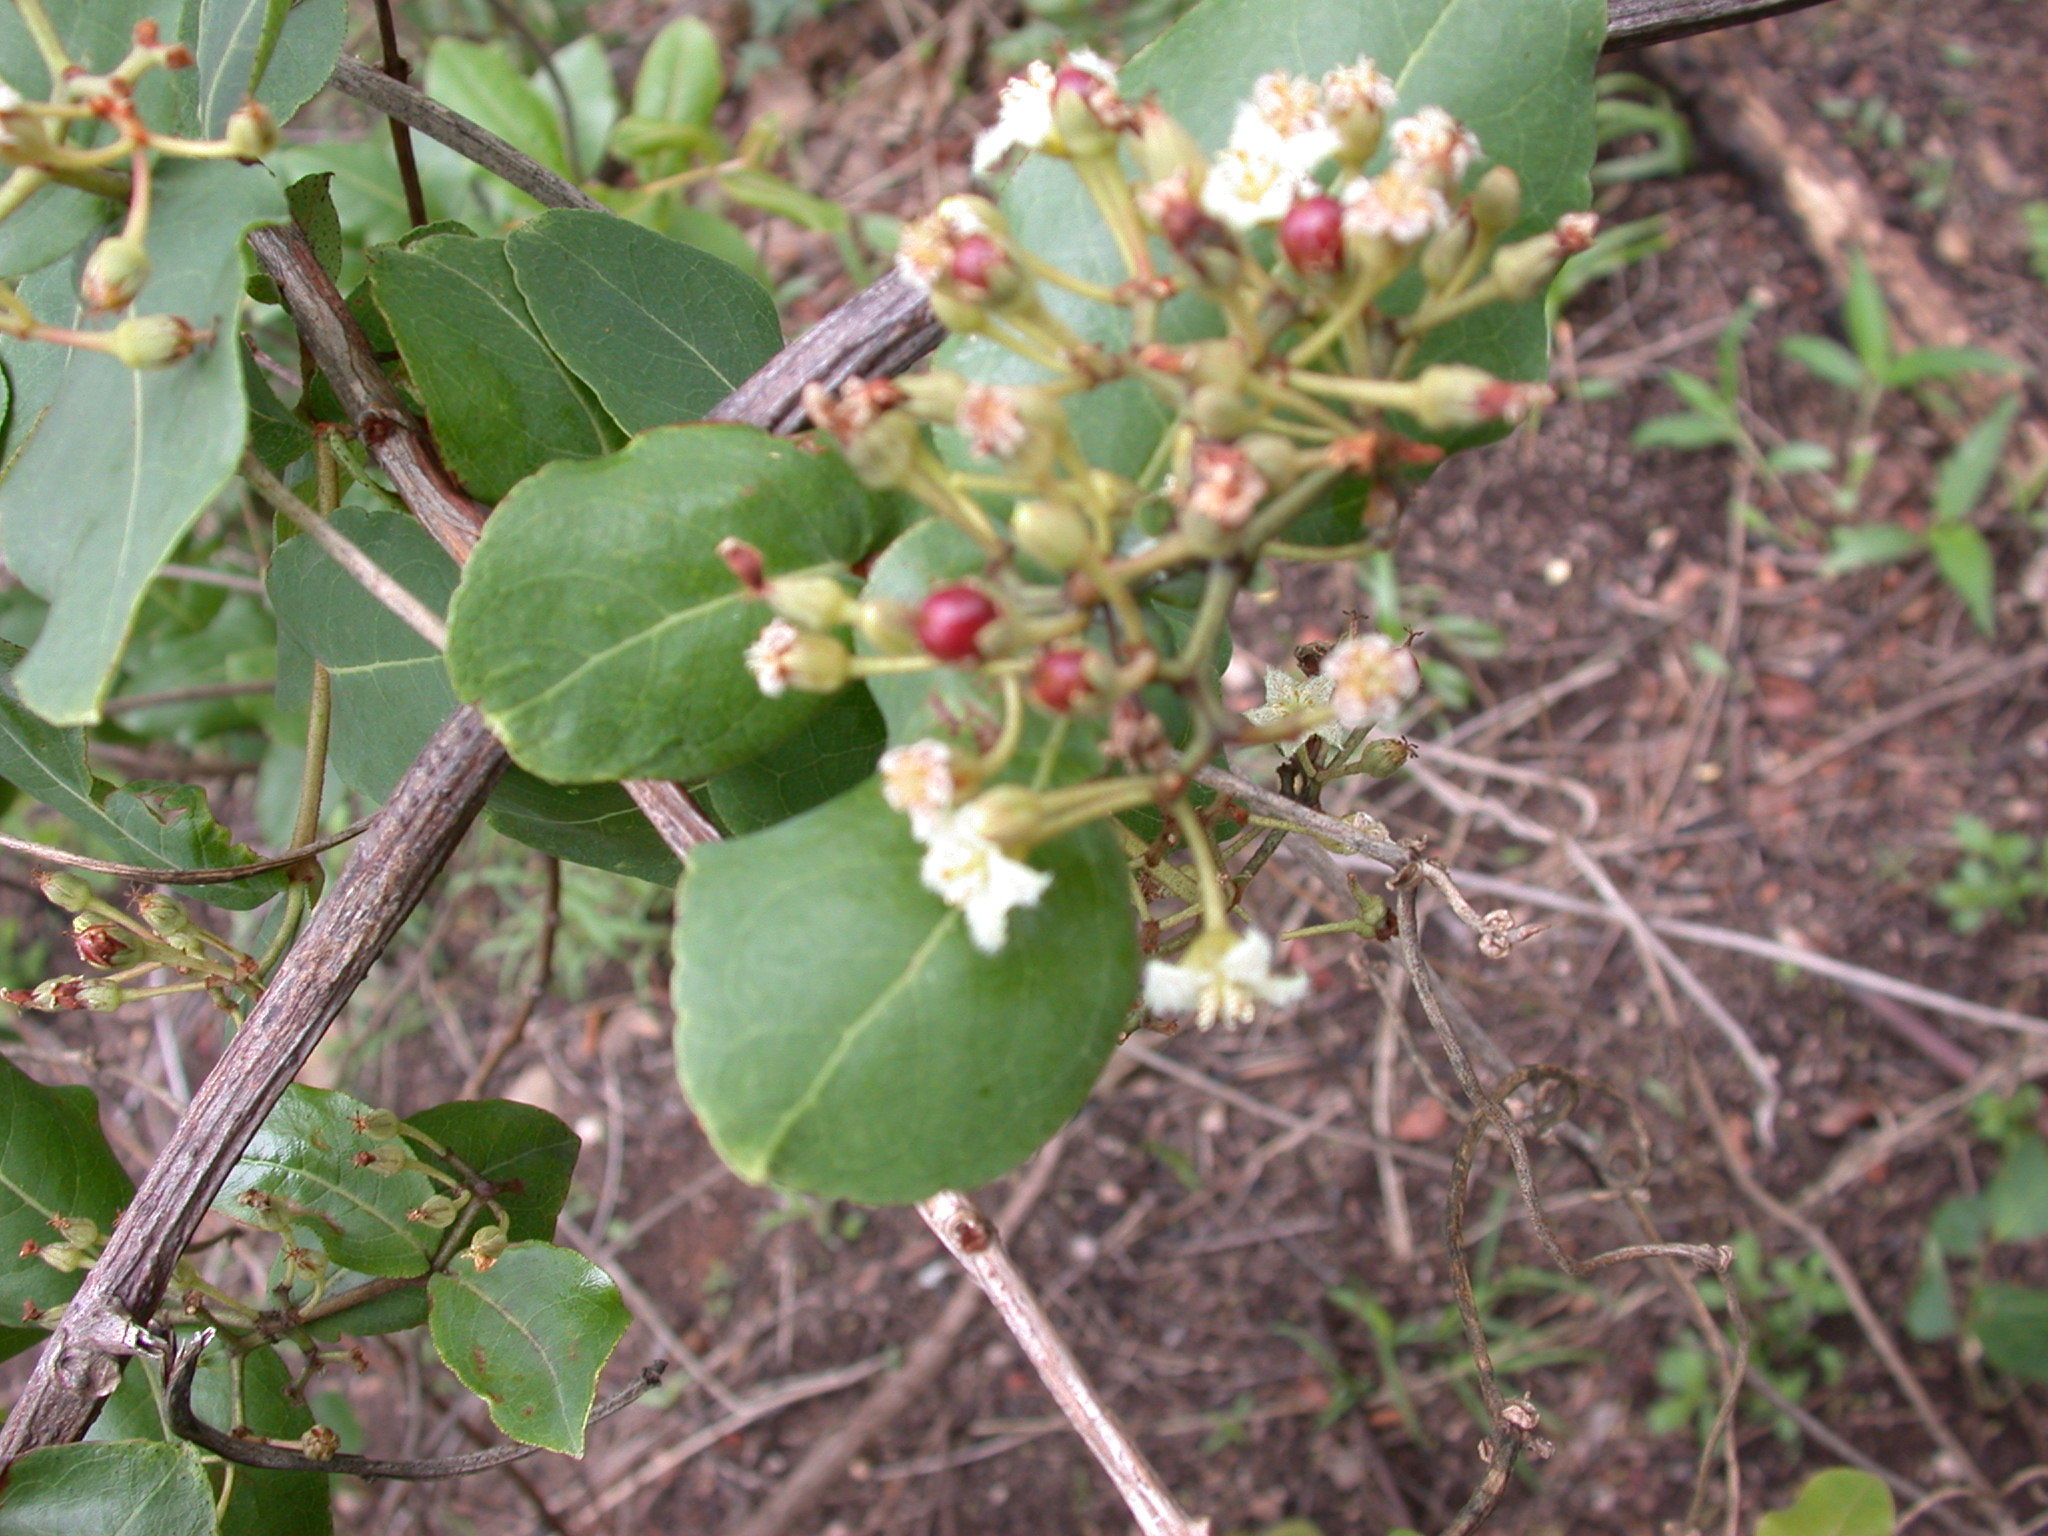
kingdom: Plantae
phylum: Tracheophyta
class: Magnoliopsida
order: Malpighiales
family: Hypericaceae
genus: Psorospermum
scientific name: Psorospermum febrifugum
